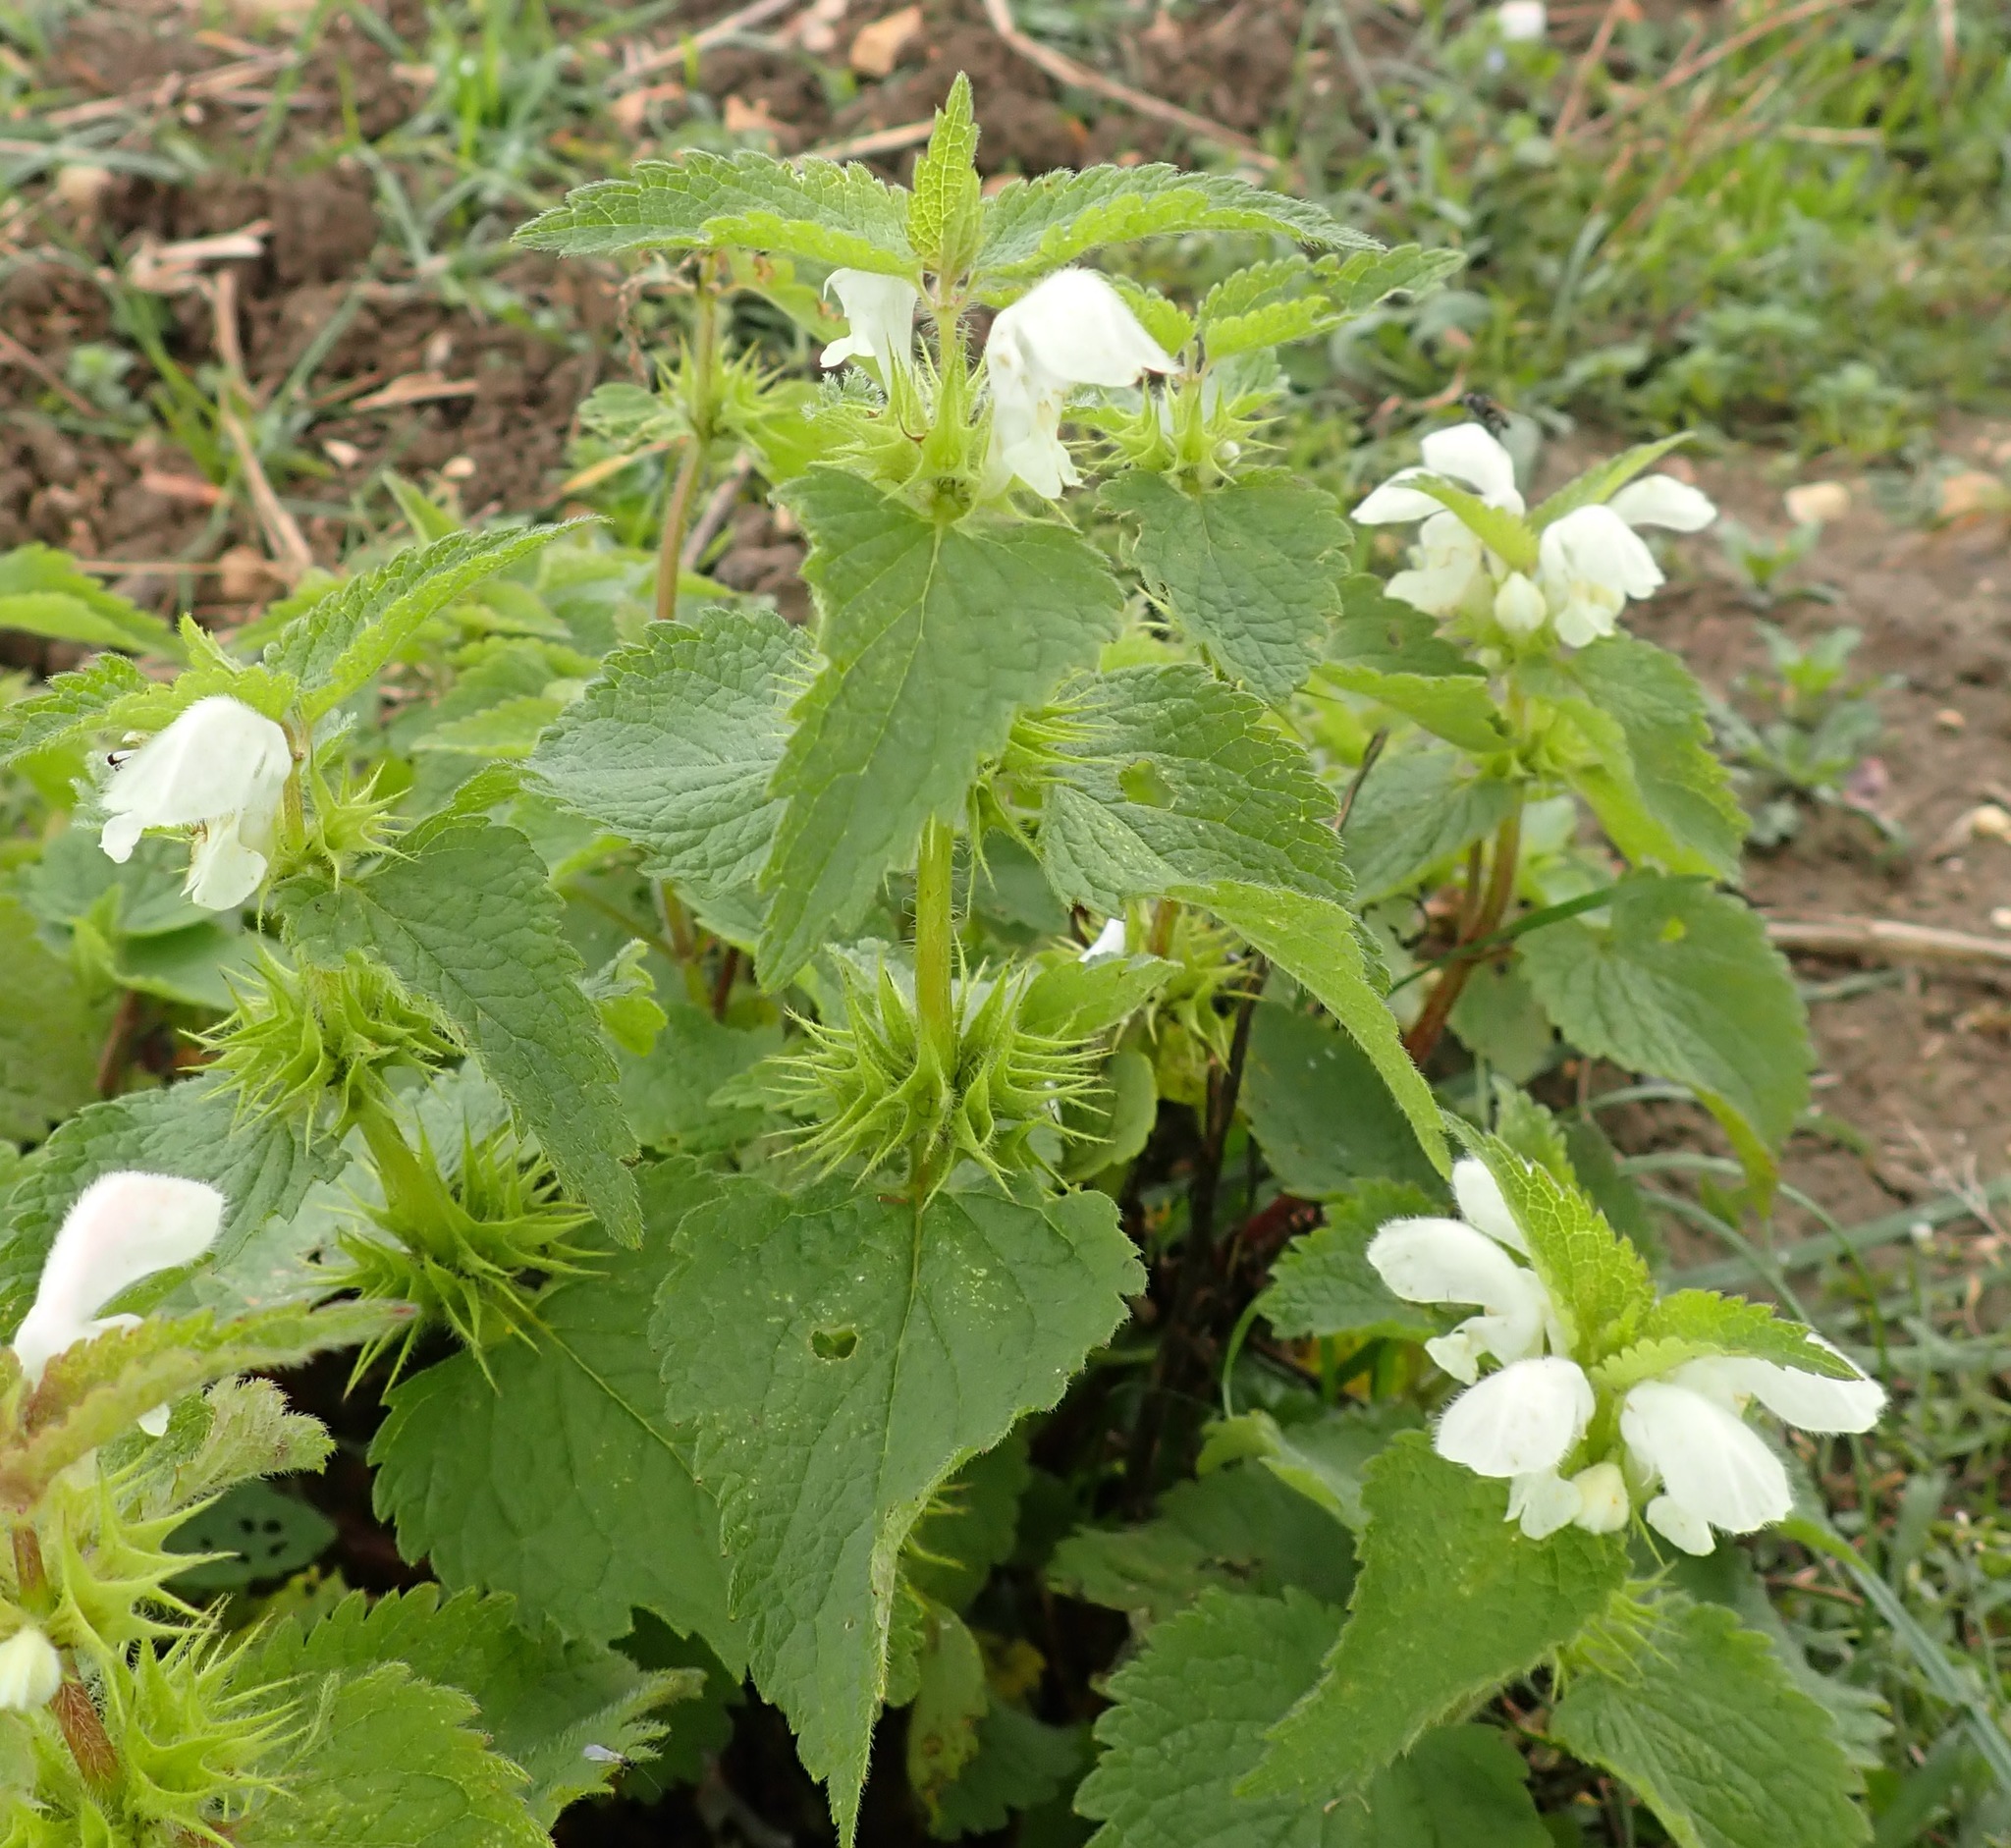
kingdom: Plantae
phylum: Tracheophyta
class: Magnoliopsida
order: Lamiales
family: Lamiaceae
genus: Lamium
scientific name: Lamium album
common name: White dead-nettle
